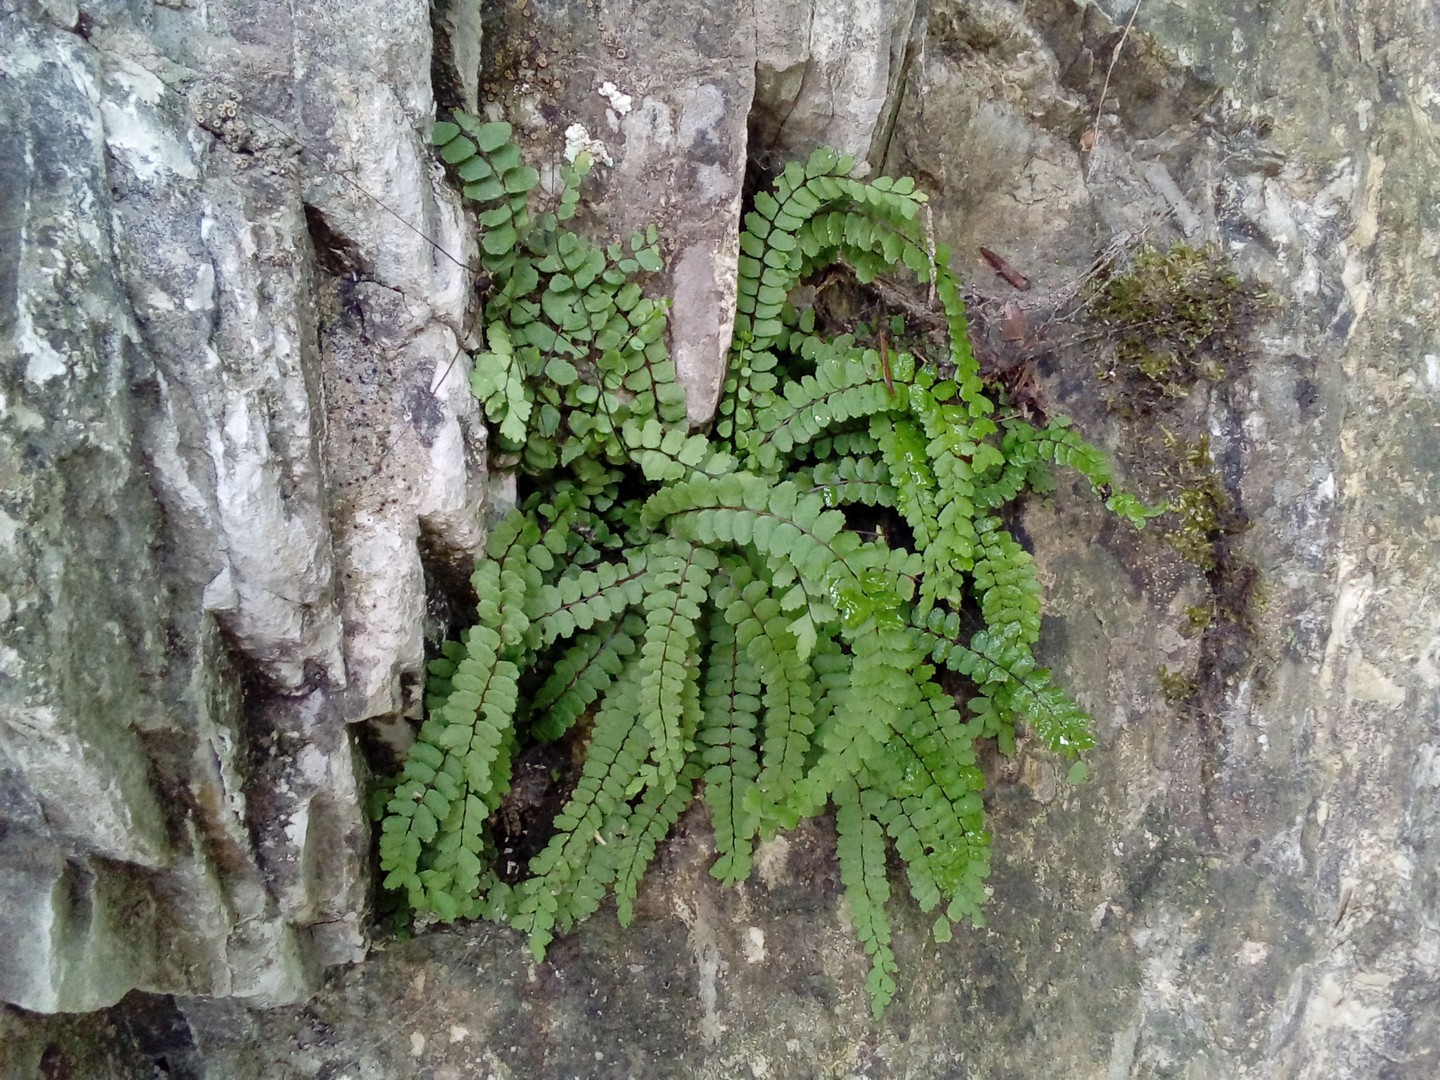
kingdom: Plantae
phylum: Tracheophyta
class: Polypodiopsida
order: Polypodiales
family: Aspleniaceae
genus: Asplenium
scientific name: Asplenium trichomanes
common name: Maidenhair spleenwort
